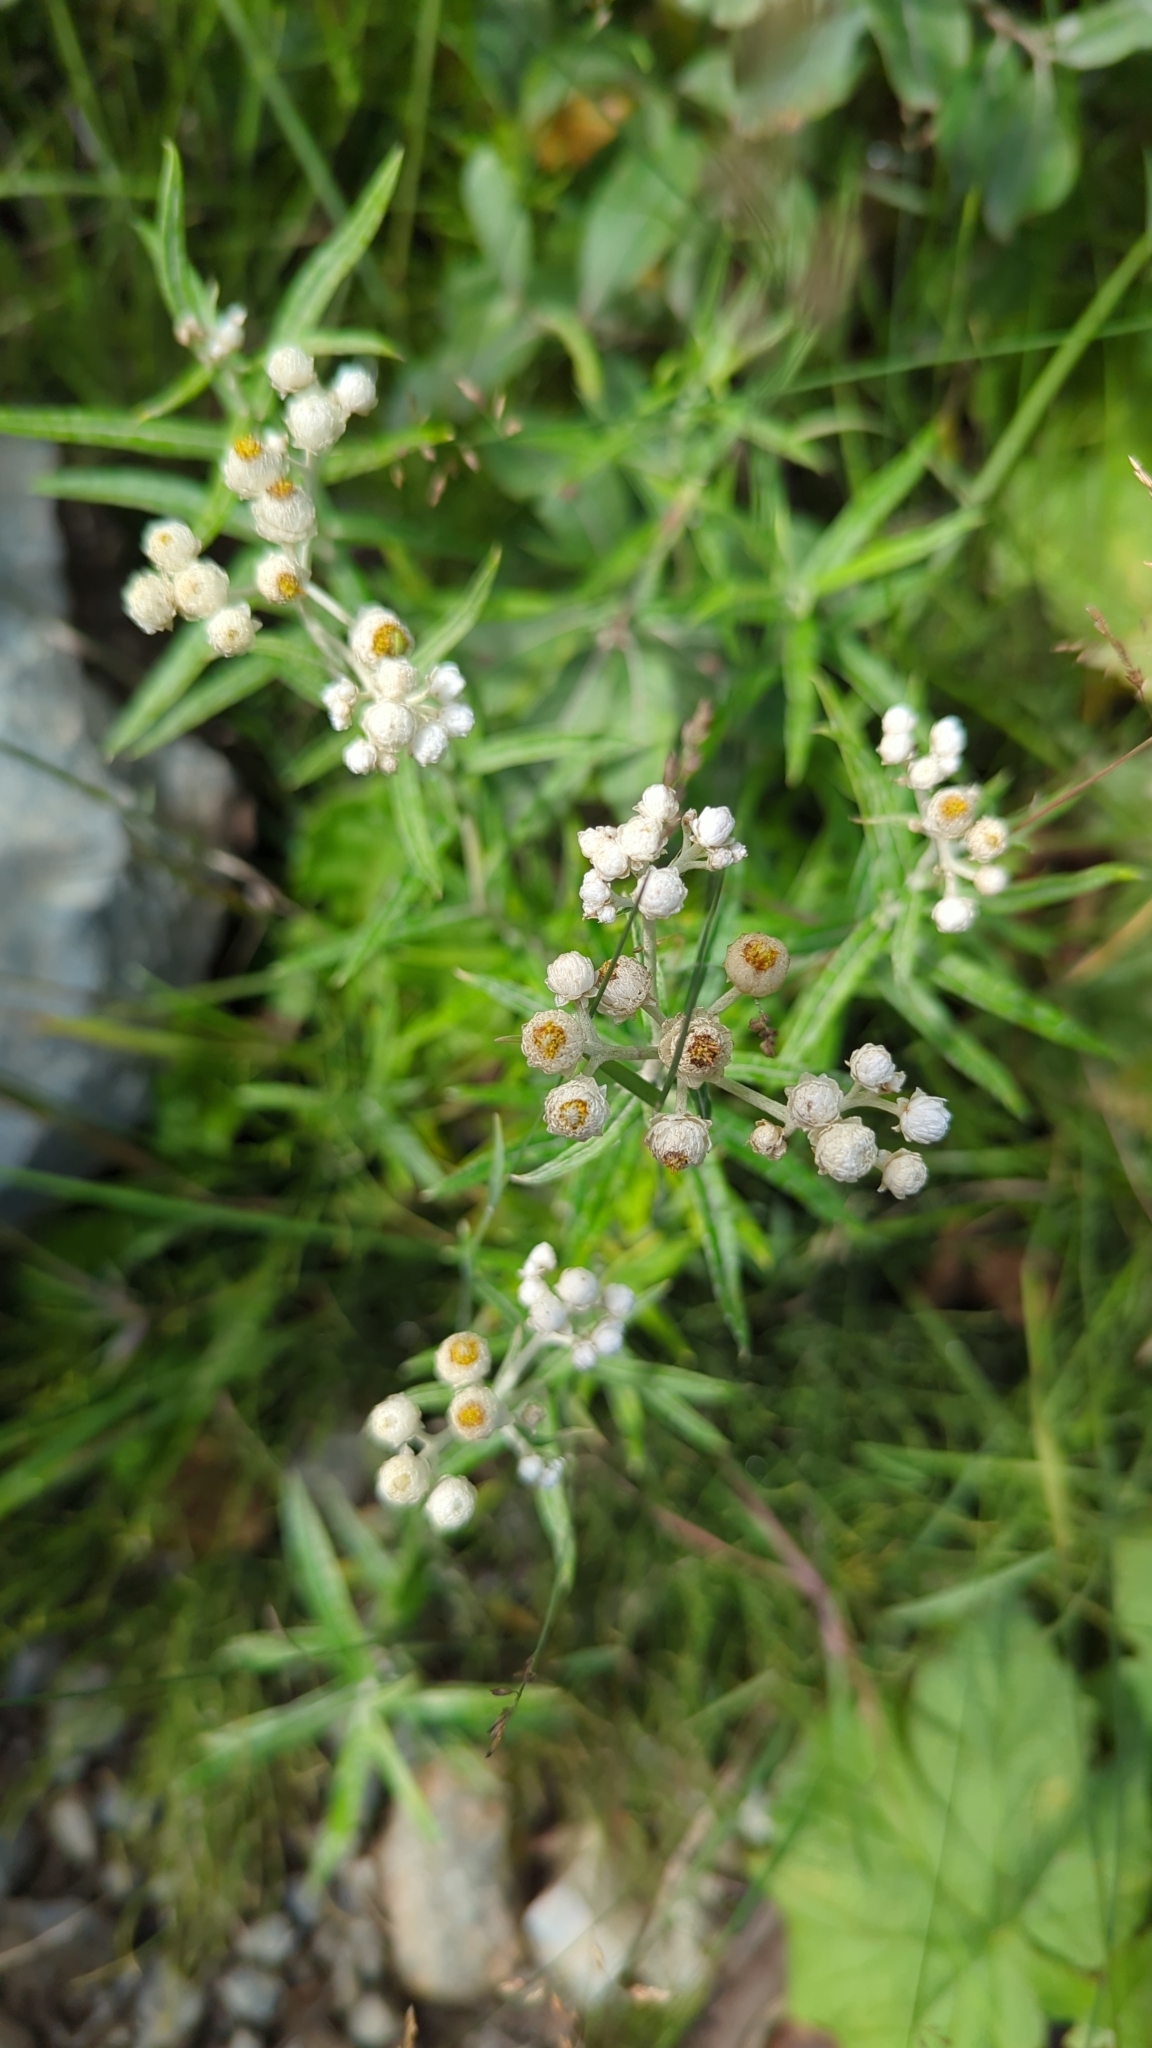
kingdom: Plantae
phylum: Tracheophyta
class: Magnoliopsida
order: Asterales
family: Asteraceae
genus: Anaphalis
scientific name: Anaphalis margaritacea
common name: Pearly everlasting
